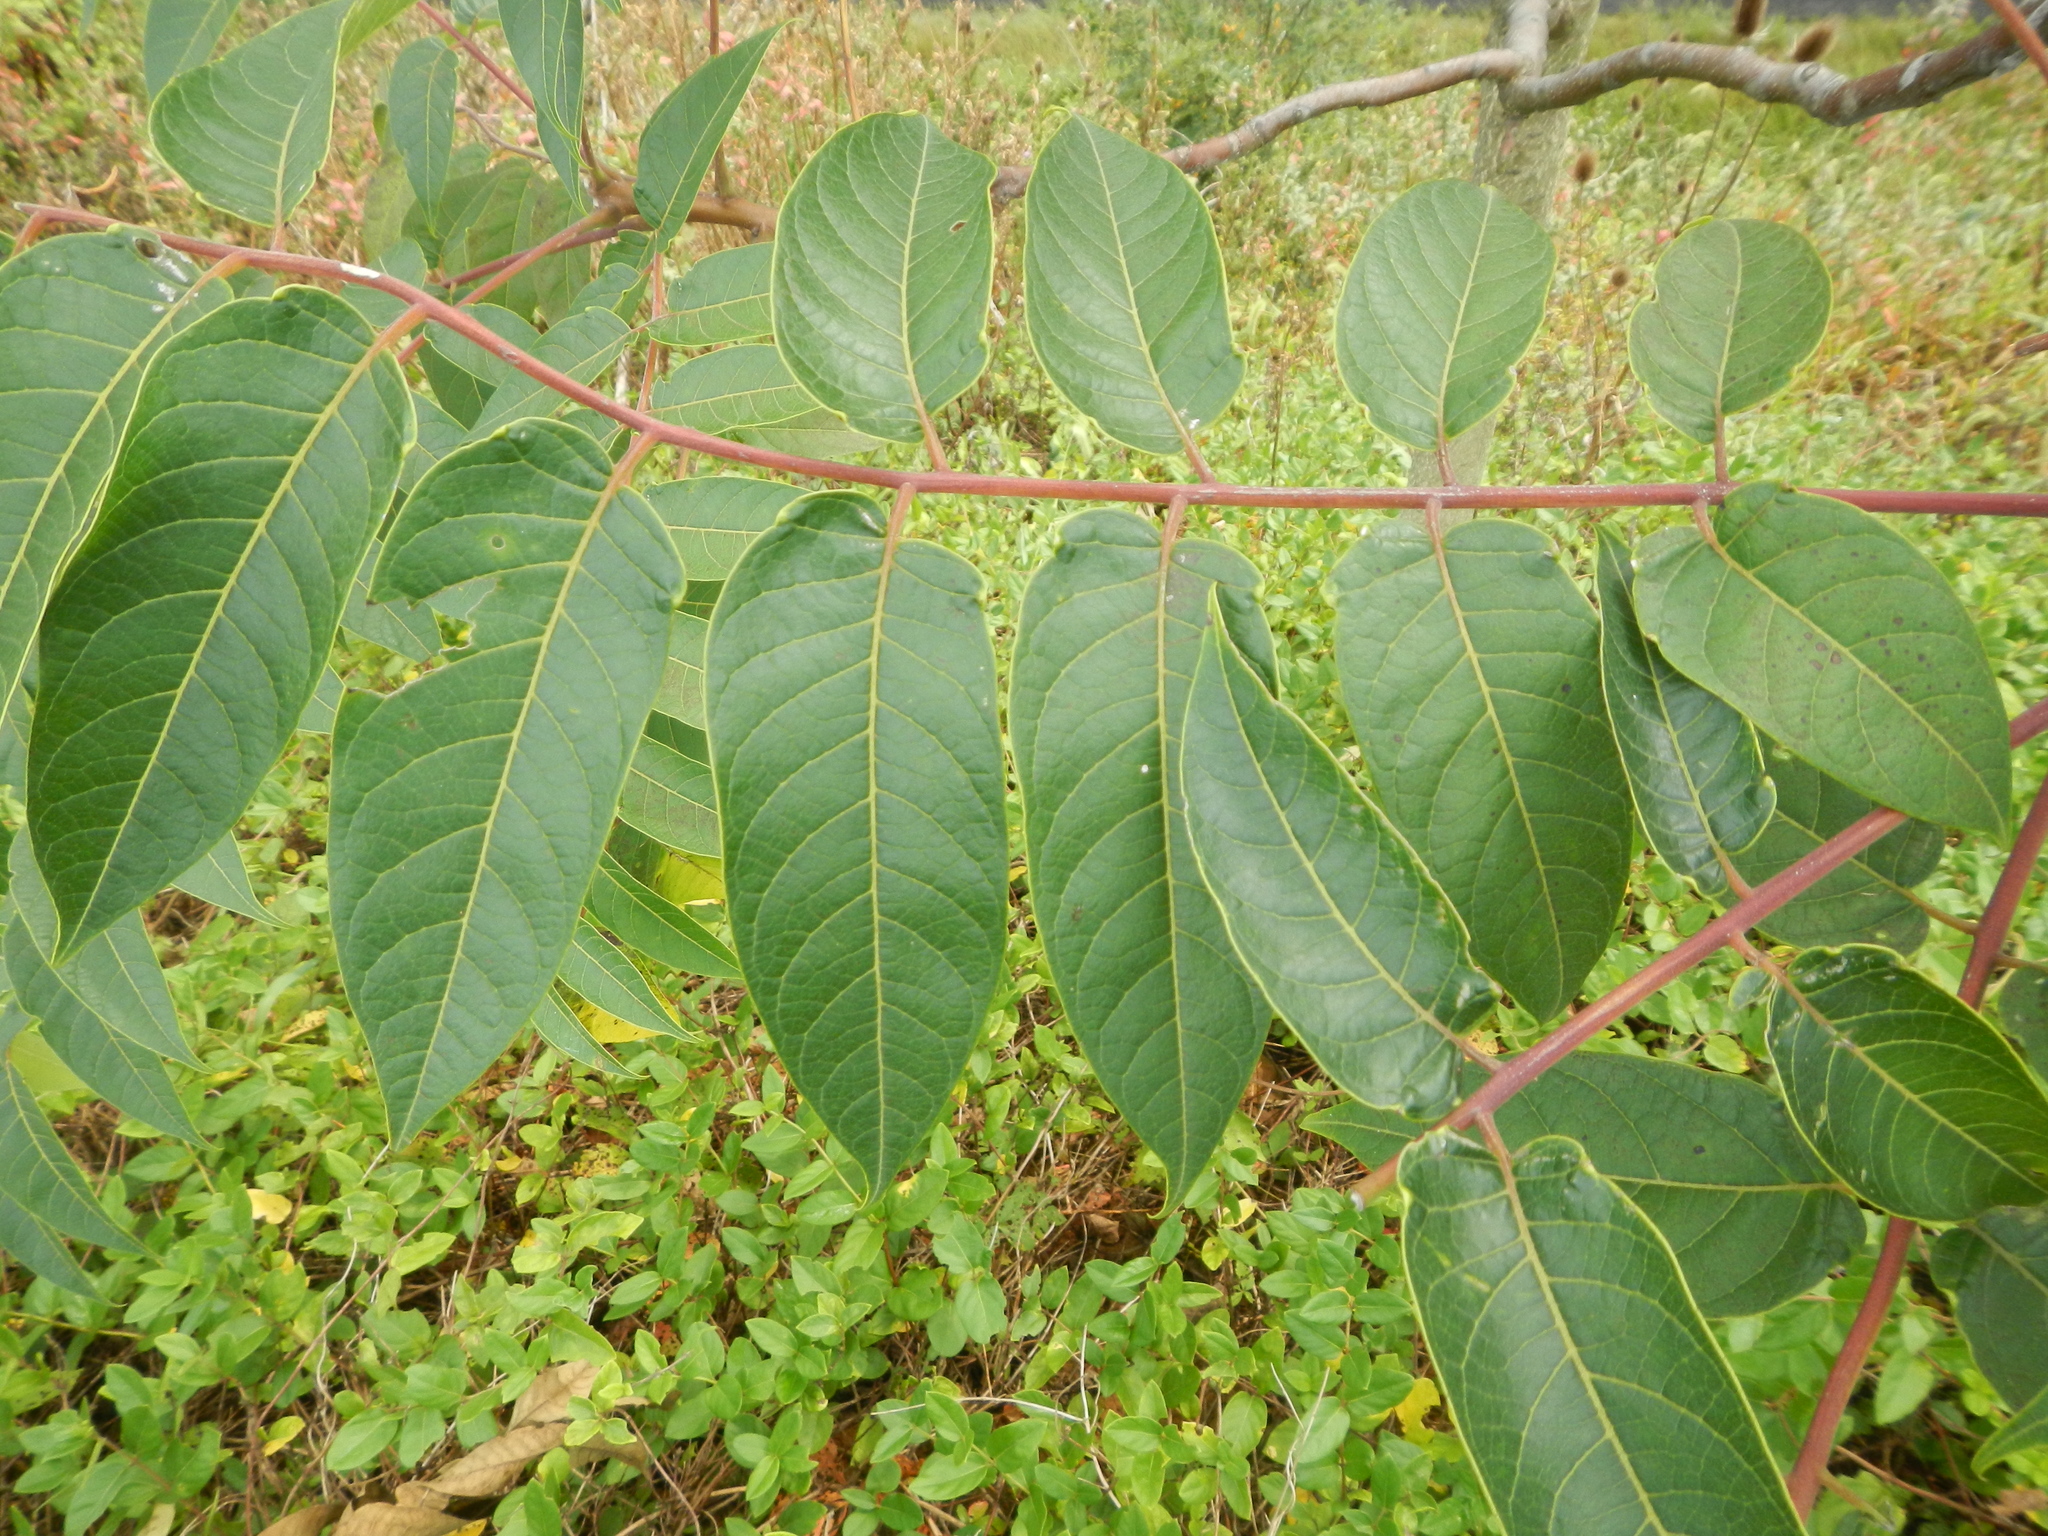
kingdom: Plantae
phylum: Tracheophyta
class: Magnoliopsida
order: Sapindales
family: Simaroubaceae
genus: Ailanthus
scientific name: Ailanthus altissima
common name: Tree-of-heaven
